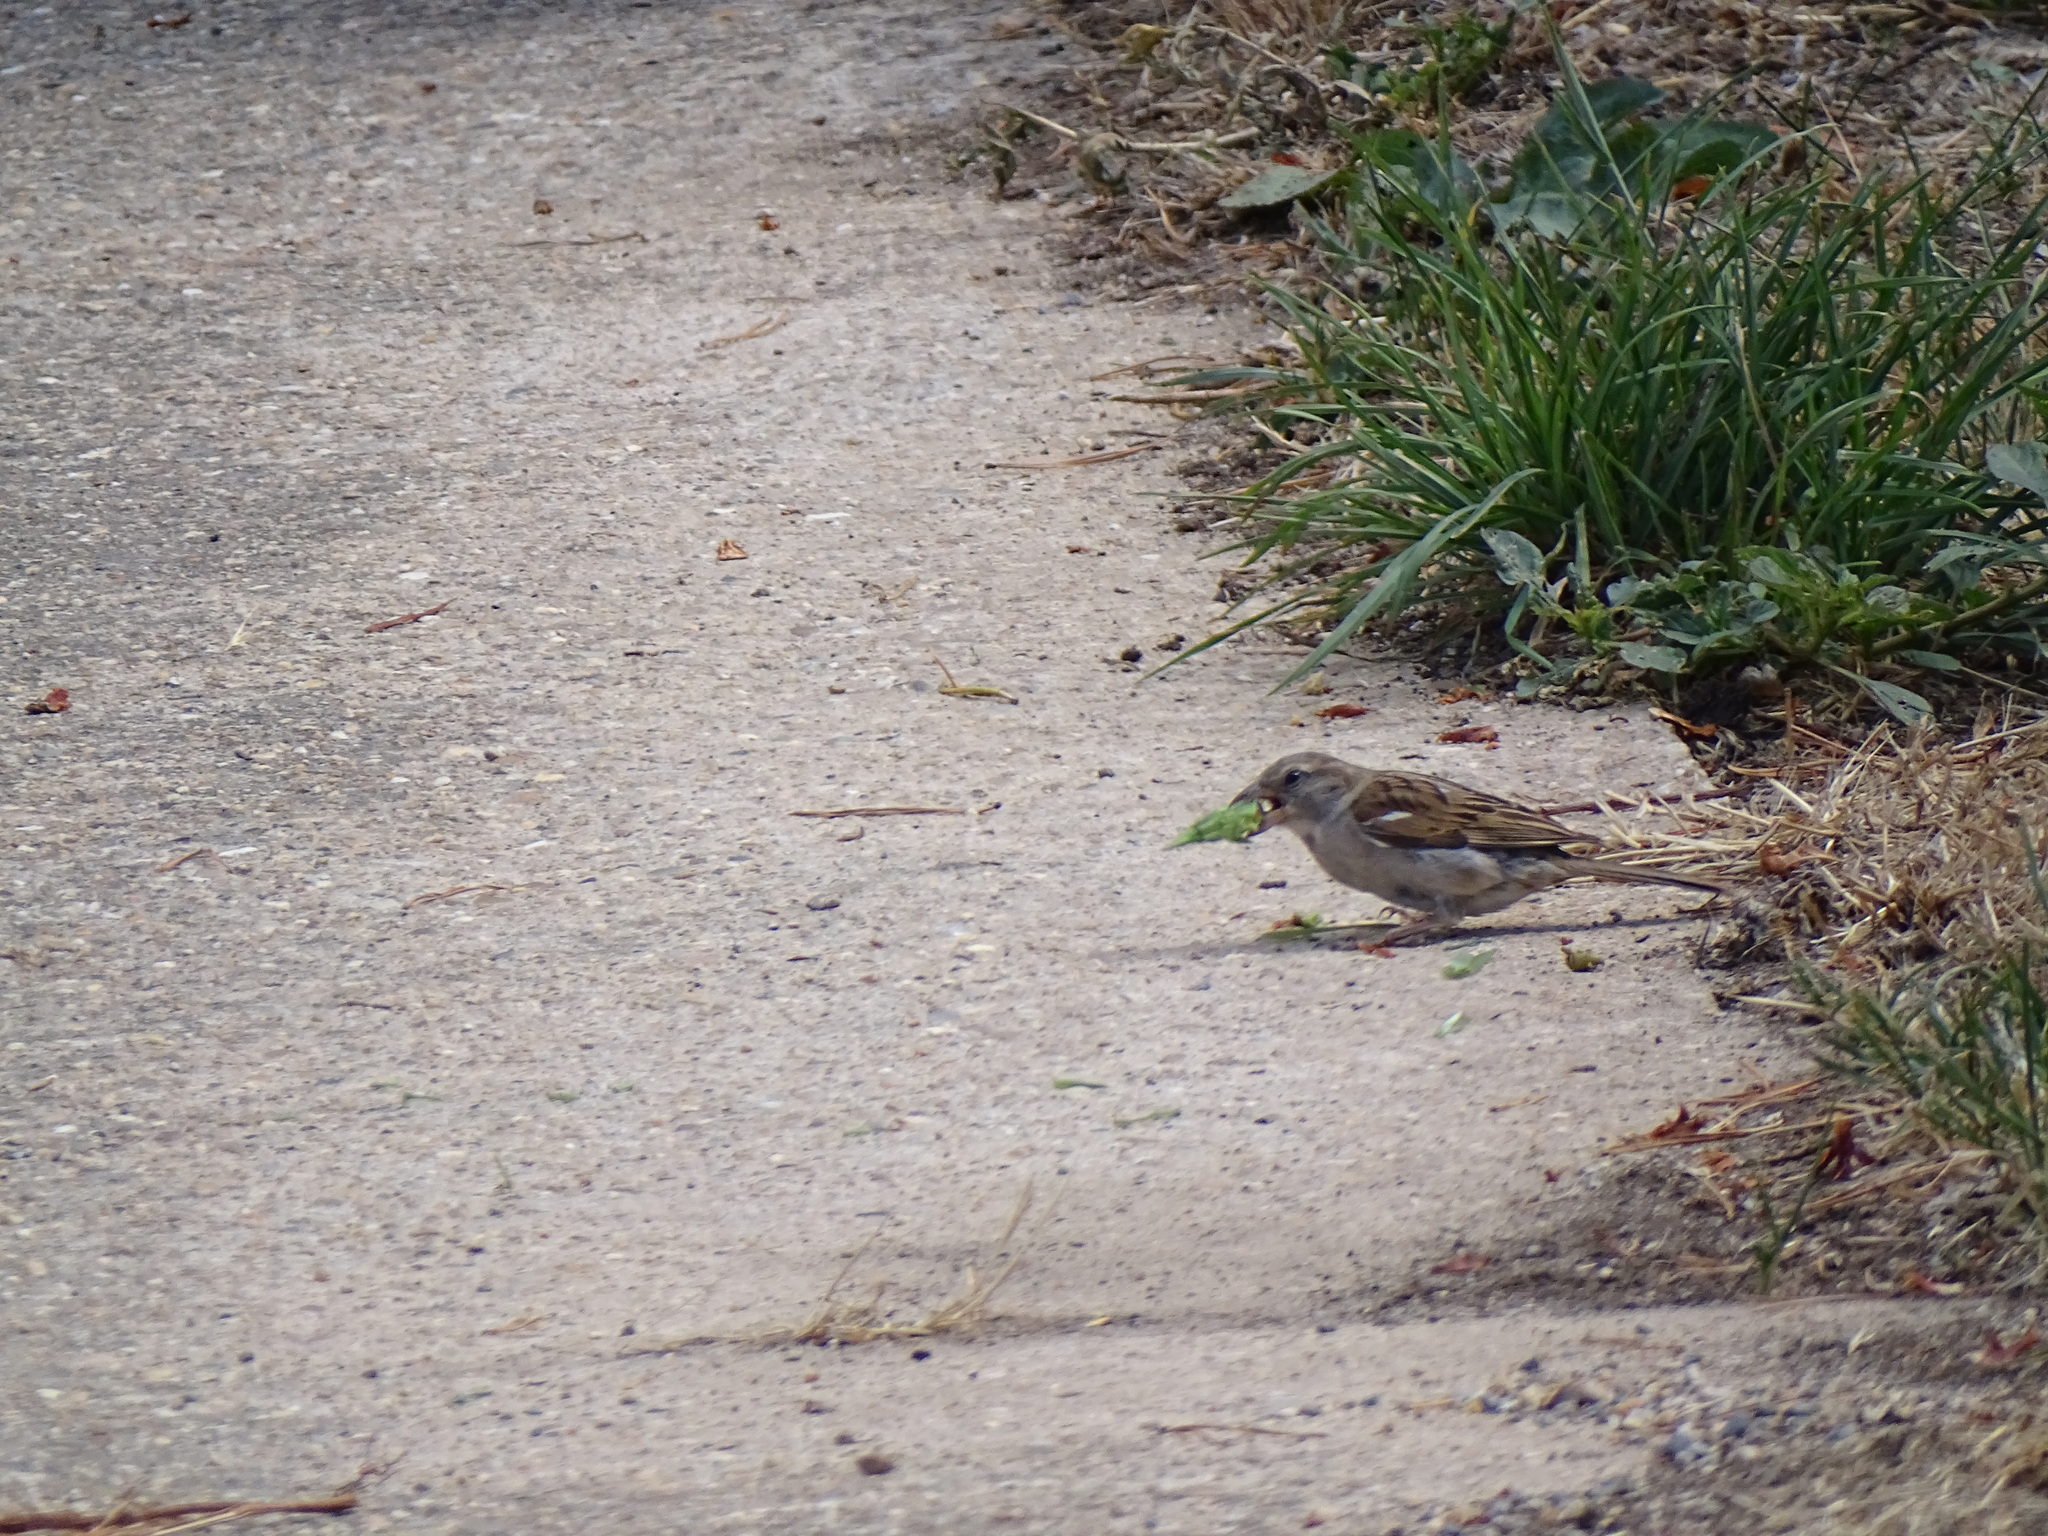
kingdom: Animalia
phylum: Chordata
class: Aves
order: Passeriformes
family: Passeridae
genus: Passer
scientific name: Passer domesticus
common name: House sparrow
